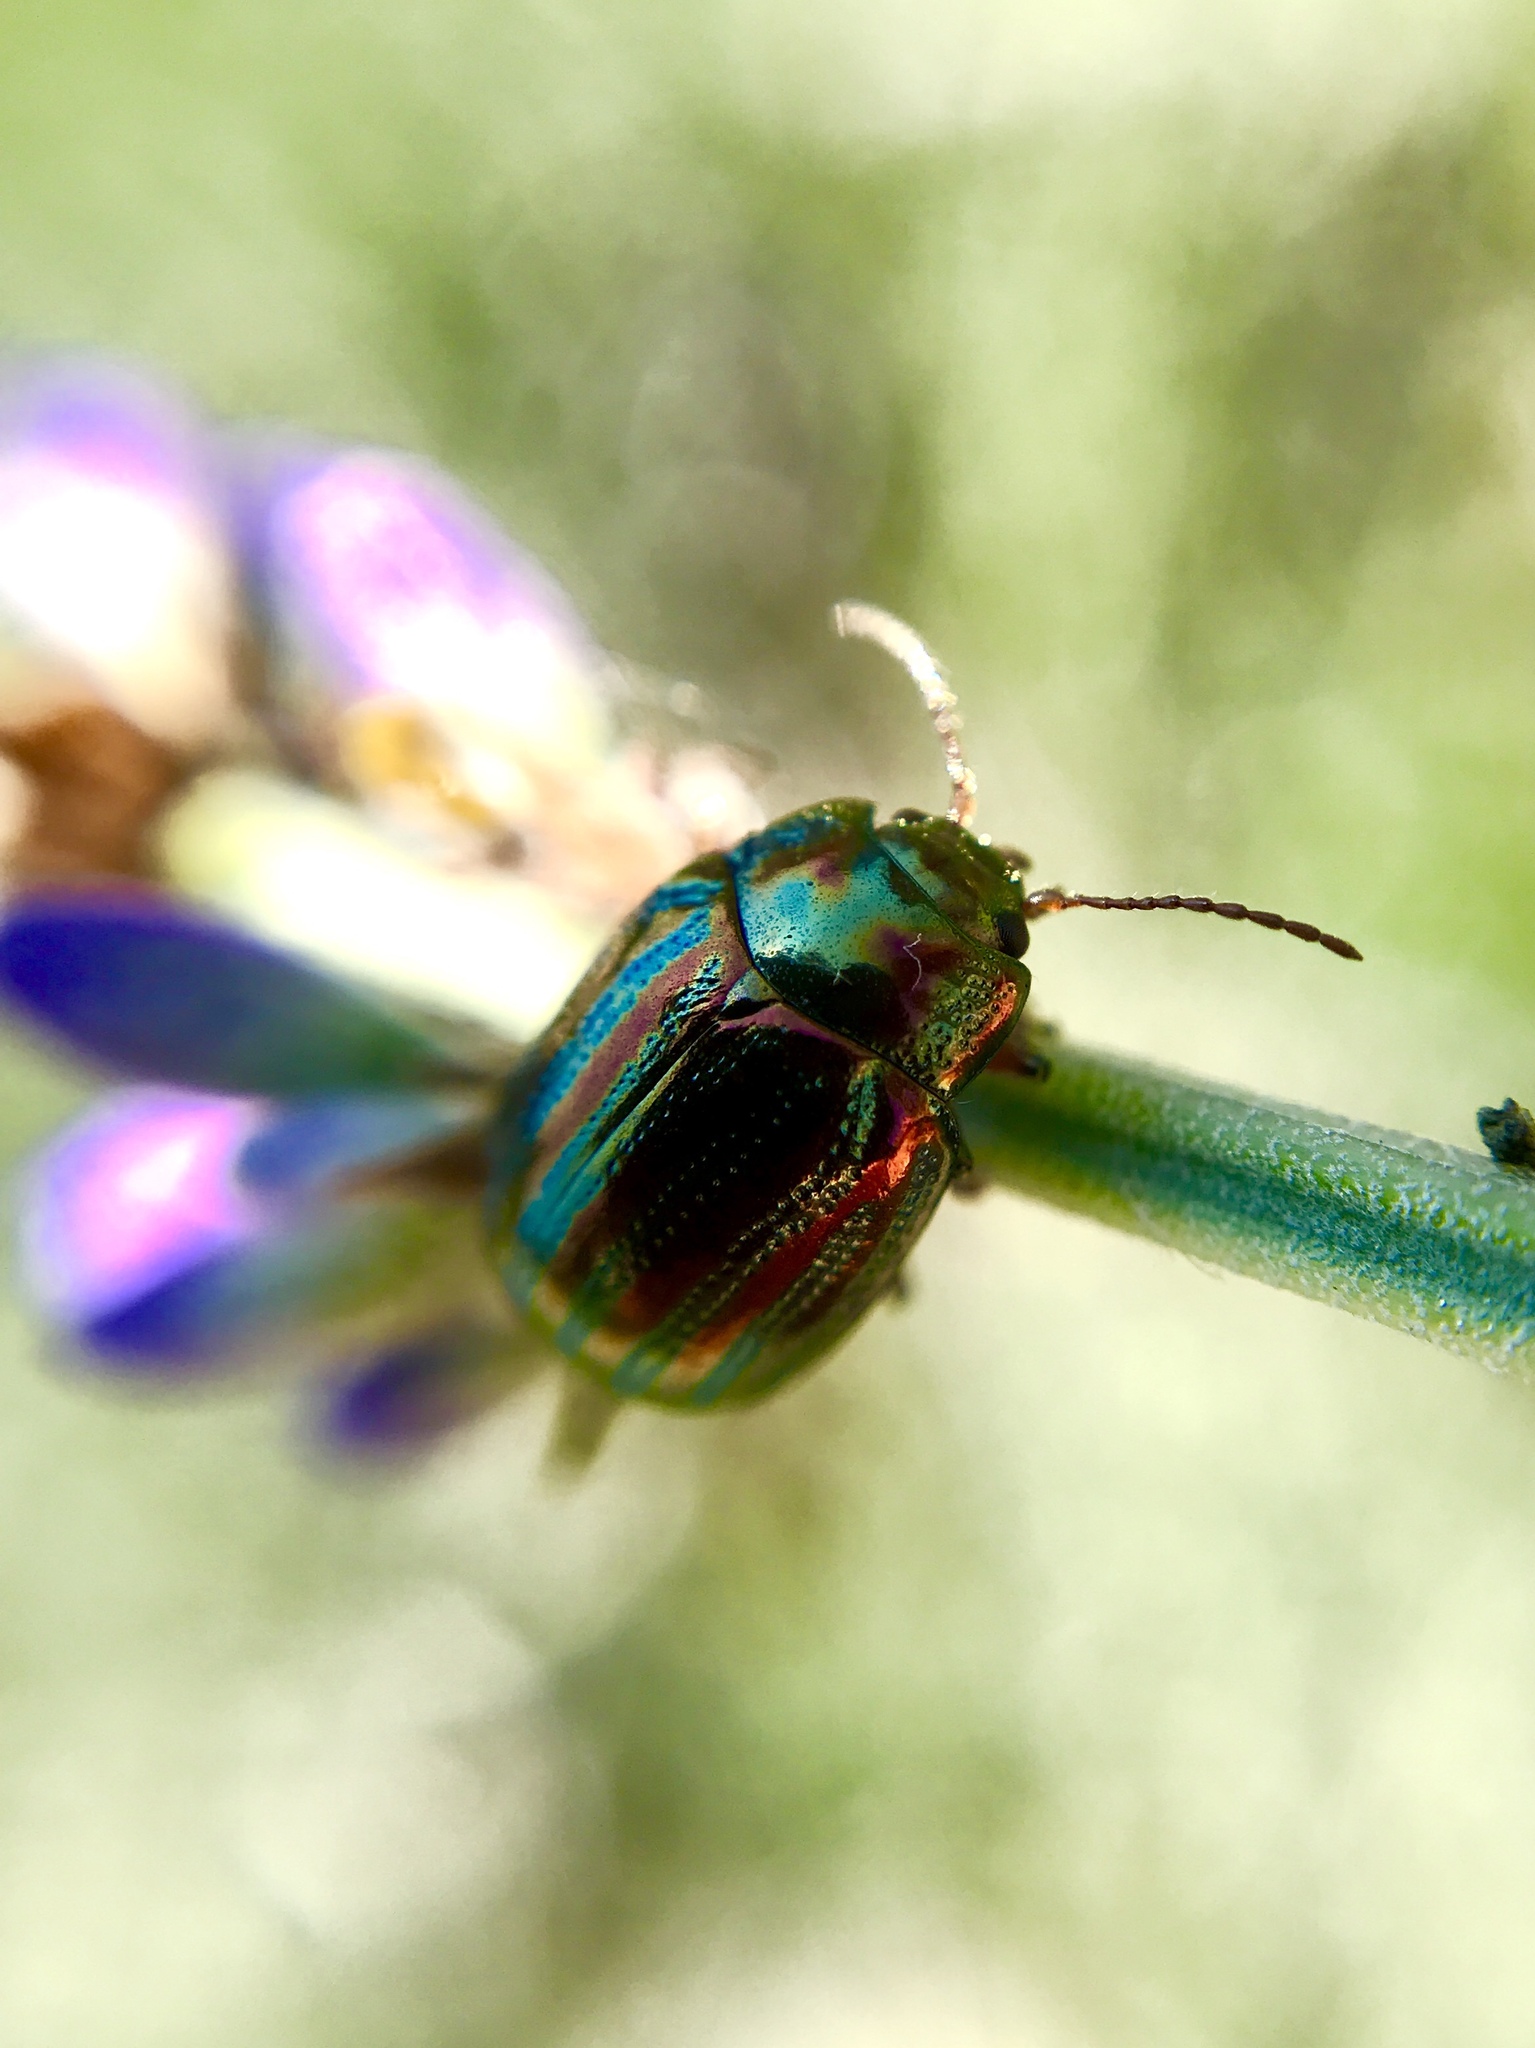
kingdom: Animalia
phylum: Arthropoda
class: Insecta
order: Coleoptera
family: Chrysomelidae
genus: Chrysolina
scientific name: Chrysolina americana
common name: Rosemary beetle
